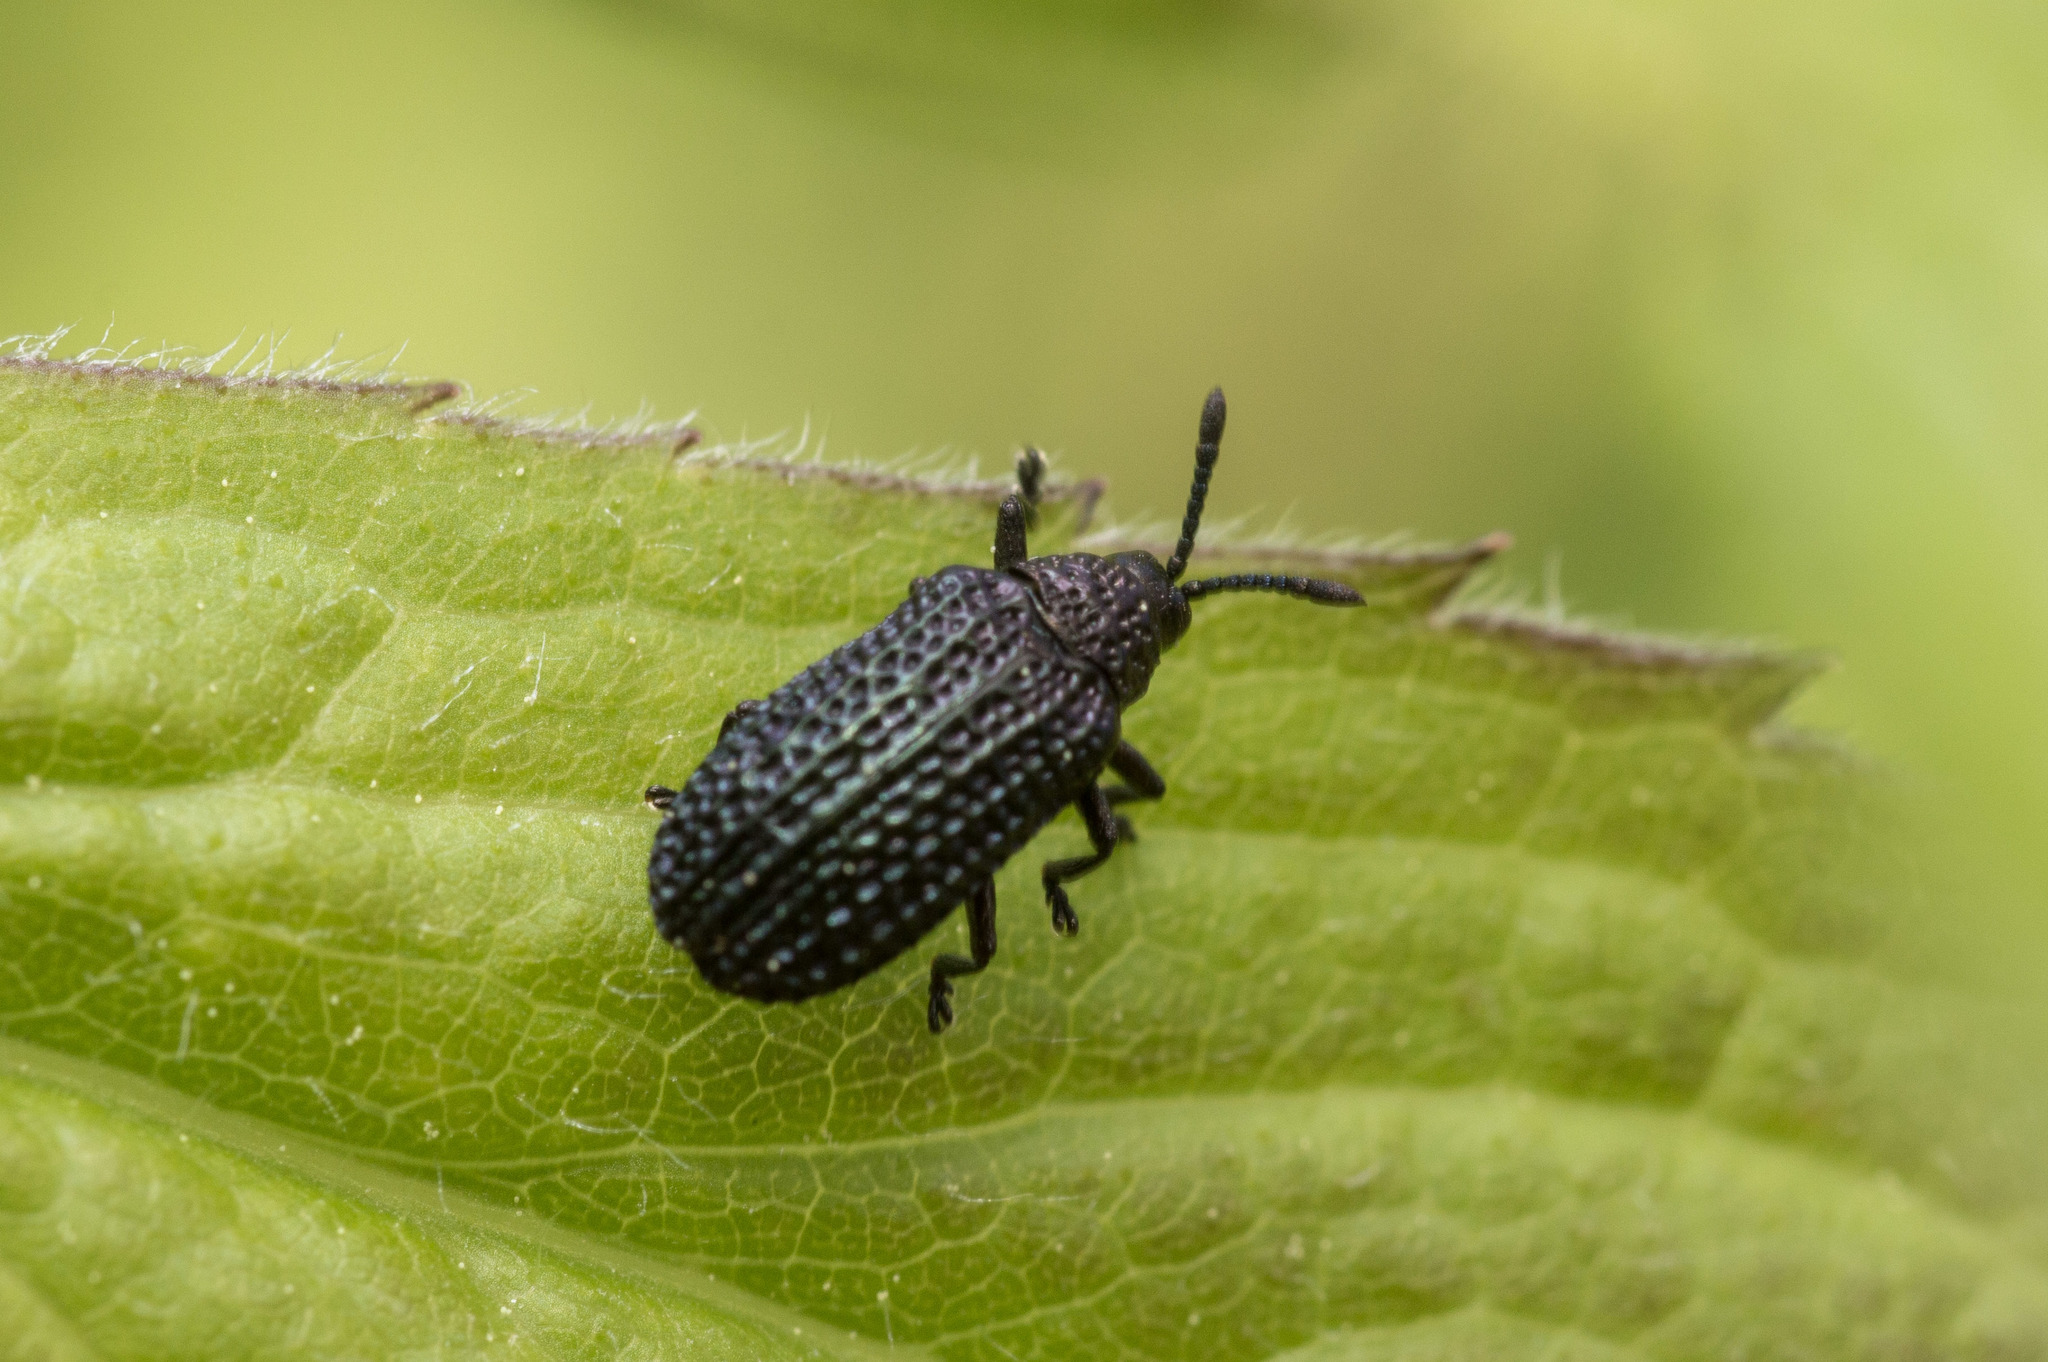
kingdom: Animalia
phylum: Arthropoda
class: Insecta
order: Coleoptera
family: Chrysomelidae
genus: Microrhopala
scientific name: Microrhopala excavata
